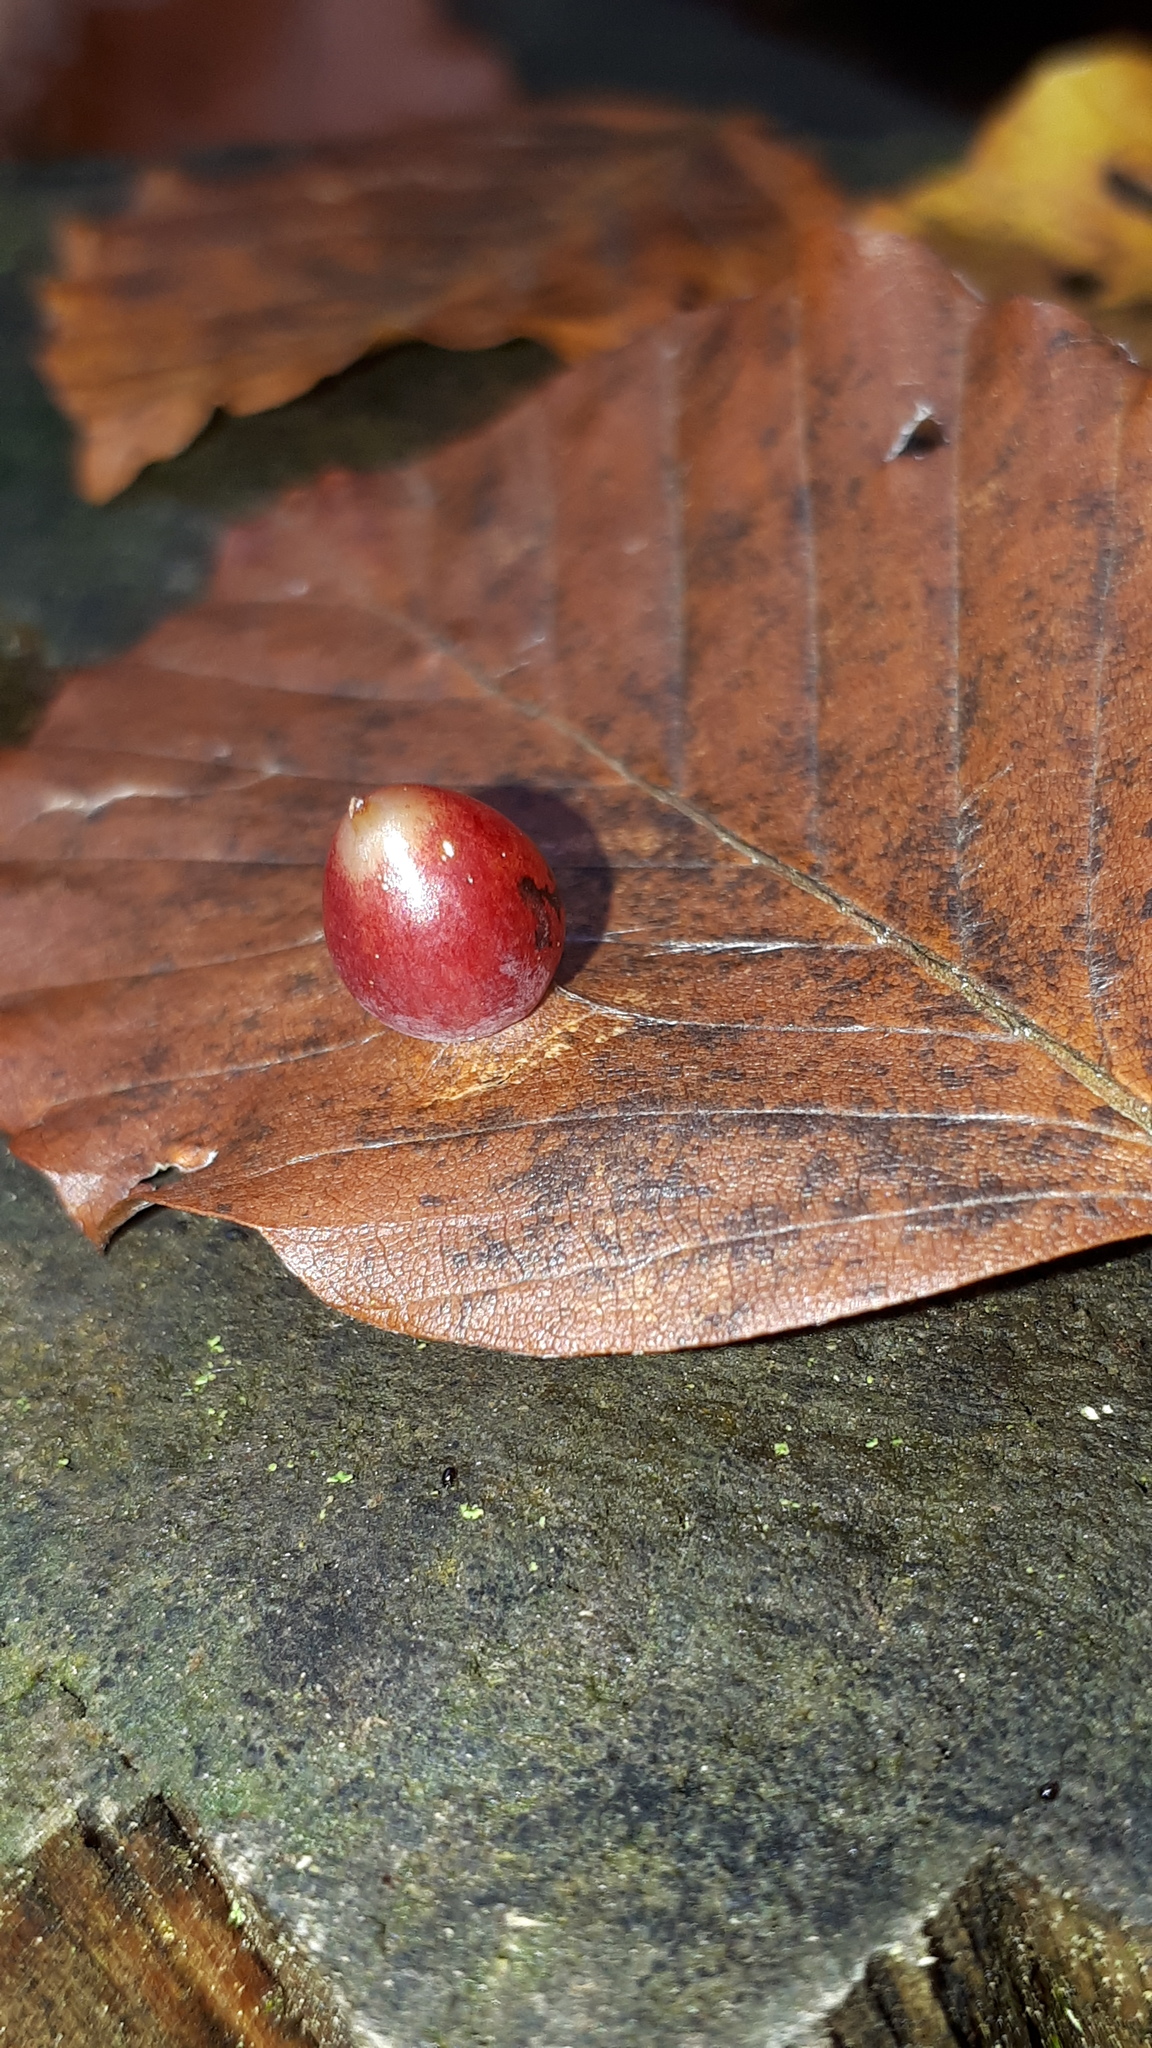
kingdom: Animalia
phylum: Arthropoda
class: Insecta
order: Diptera
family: Cecidomyiidae
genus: Mikiola
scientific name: Mikiola fagi
